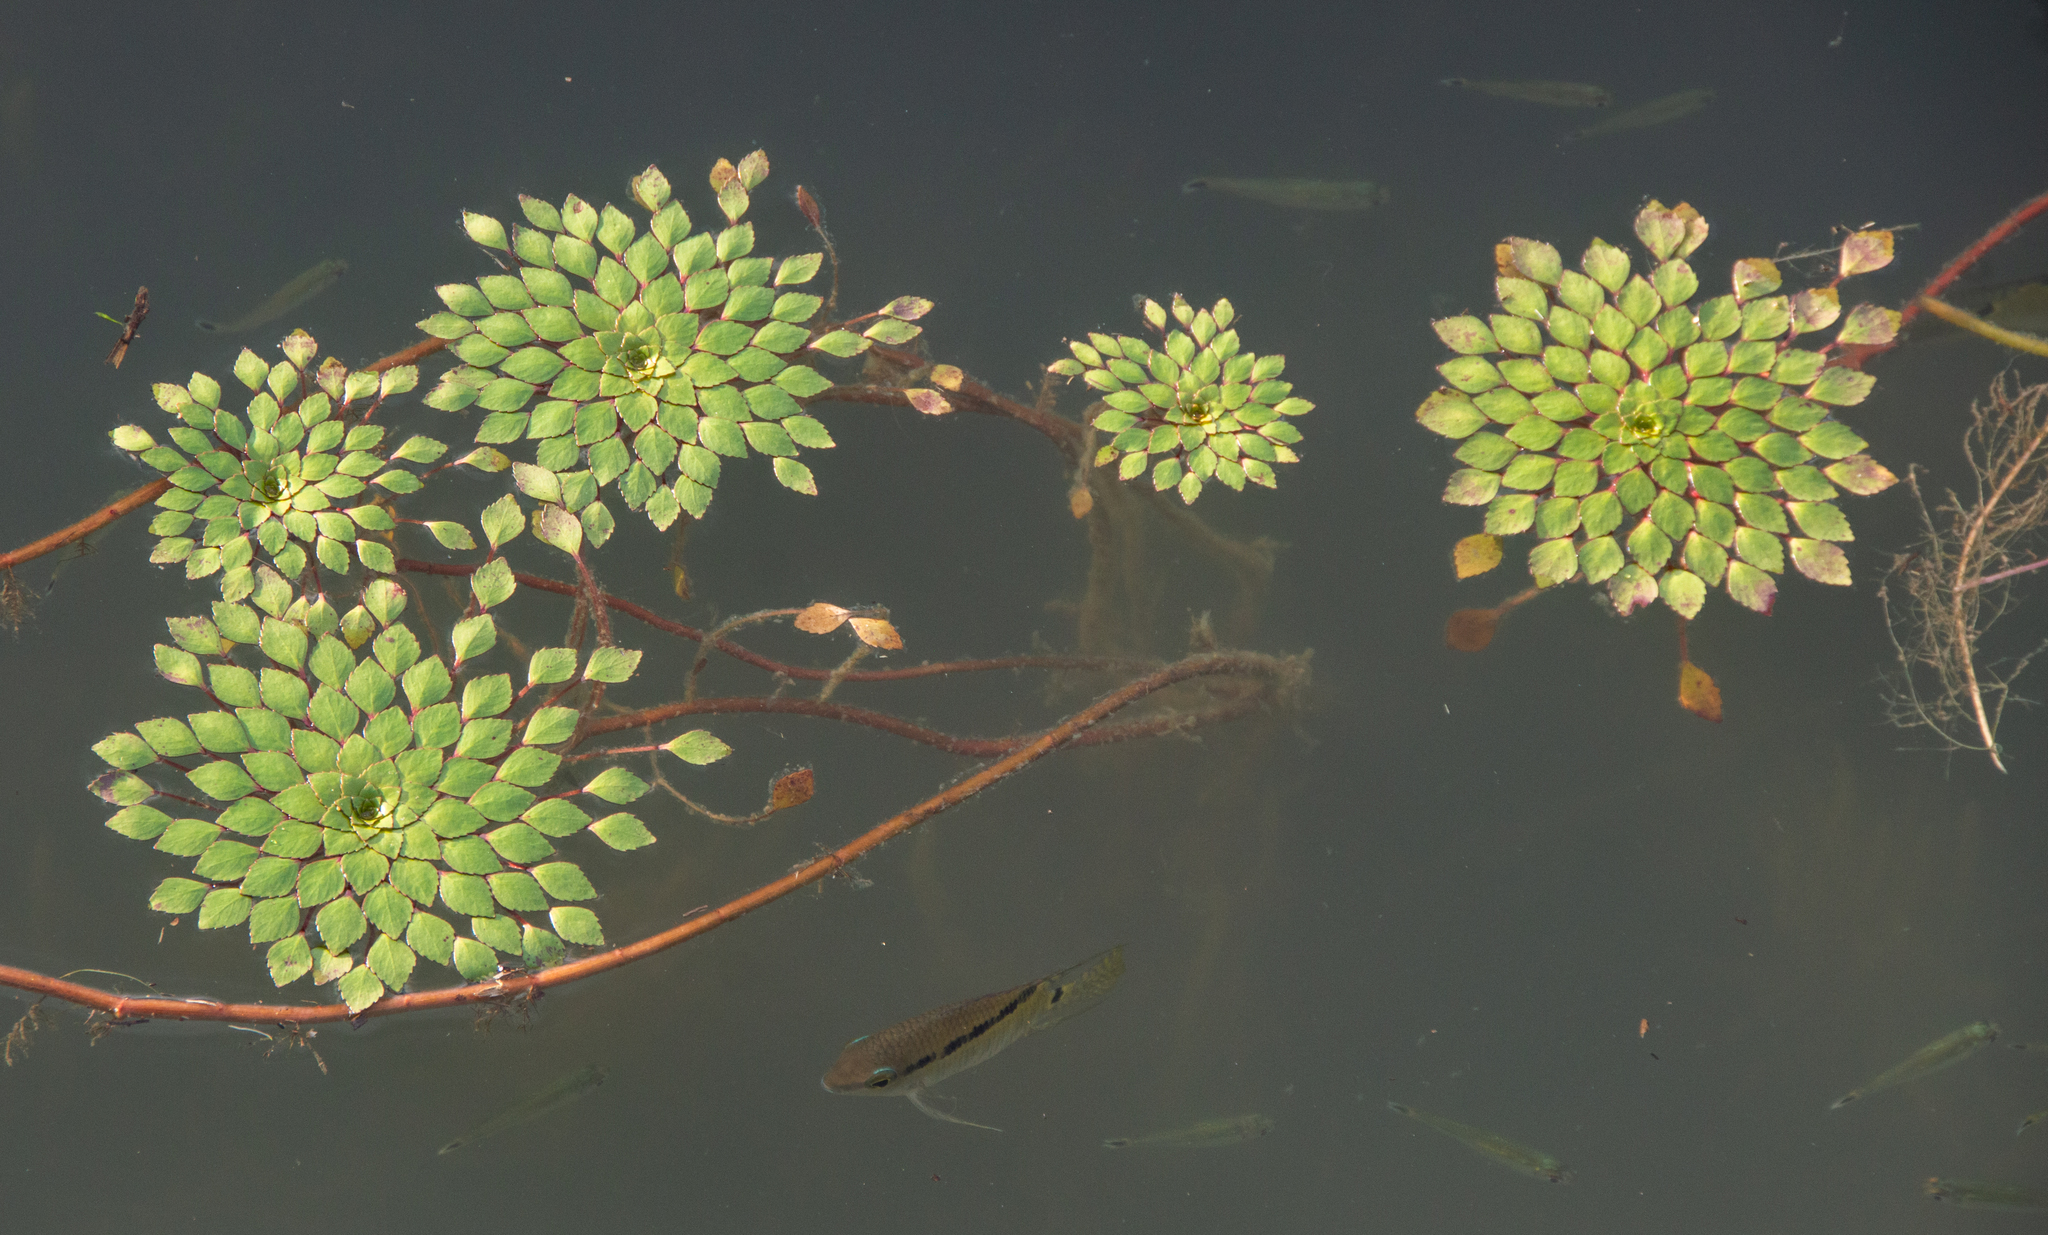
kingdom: Plantae
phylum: Tracheophyta
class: Magnoliopsida
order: Myrtales
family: Onagraceae
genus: Ludwigia
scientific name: Ludwigia sedioides
